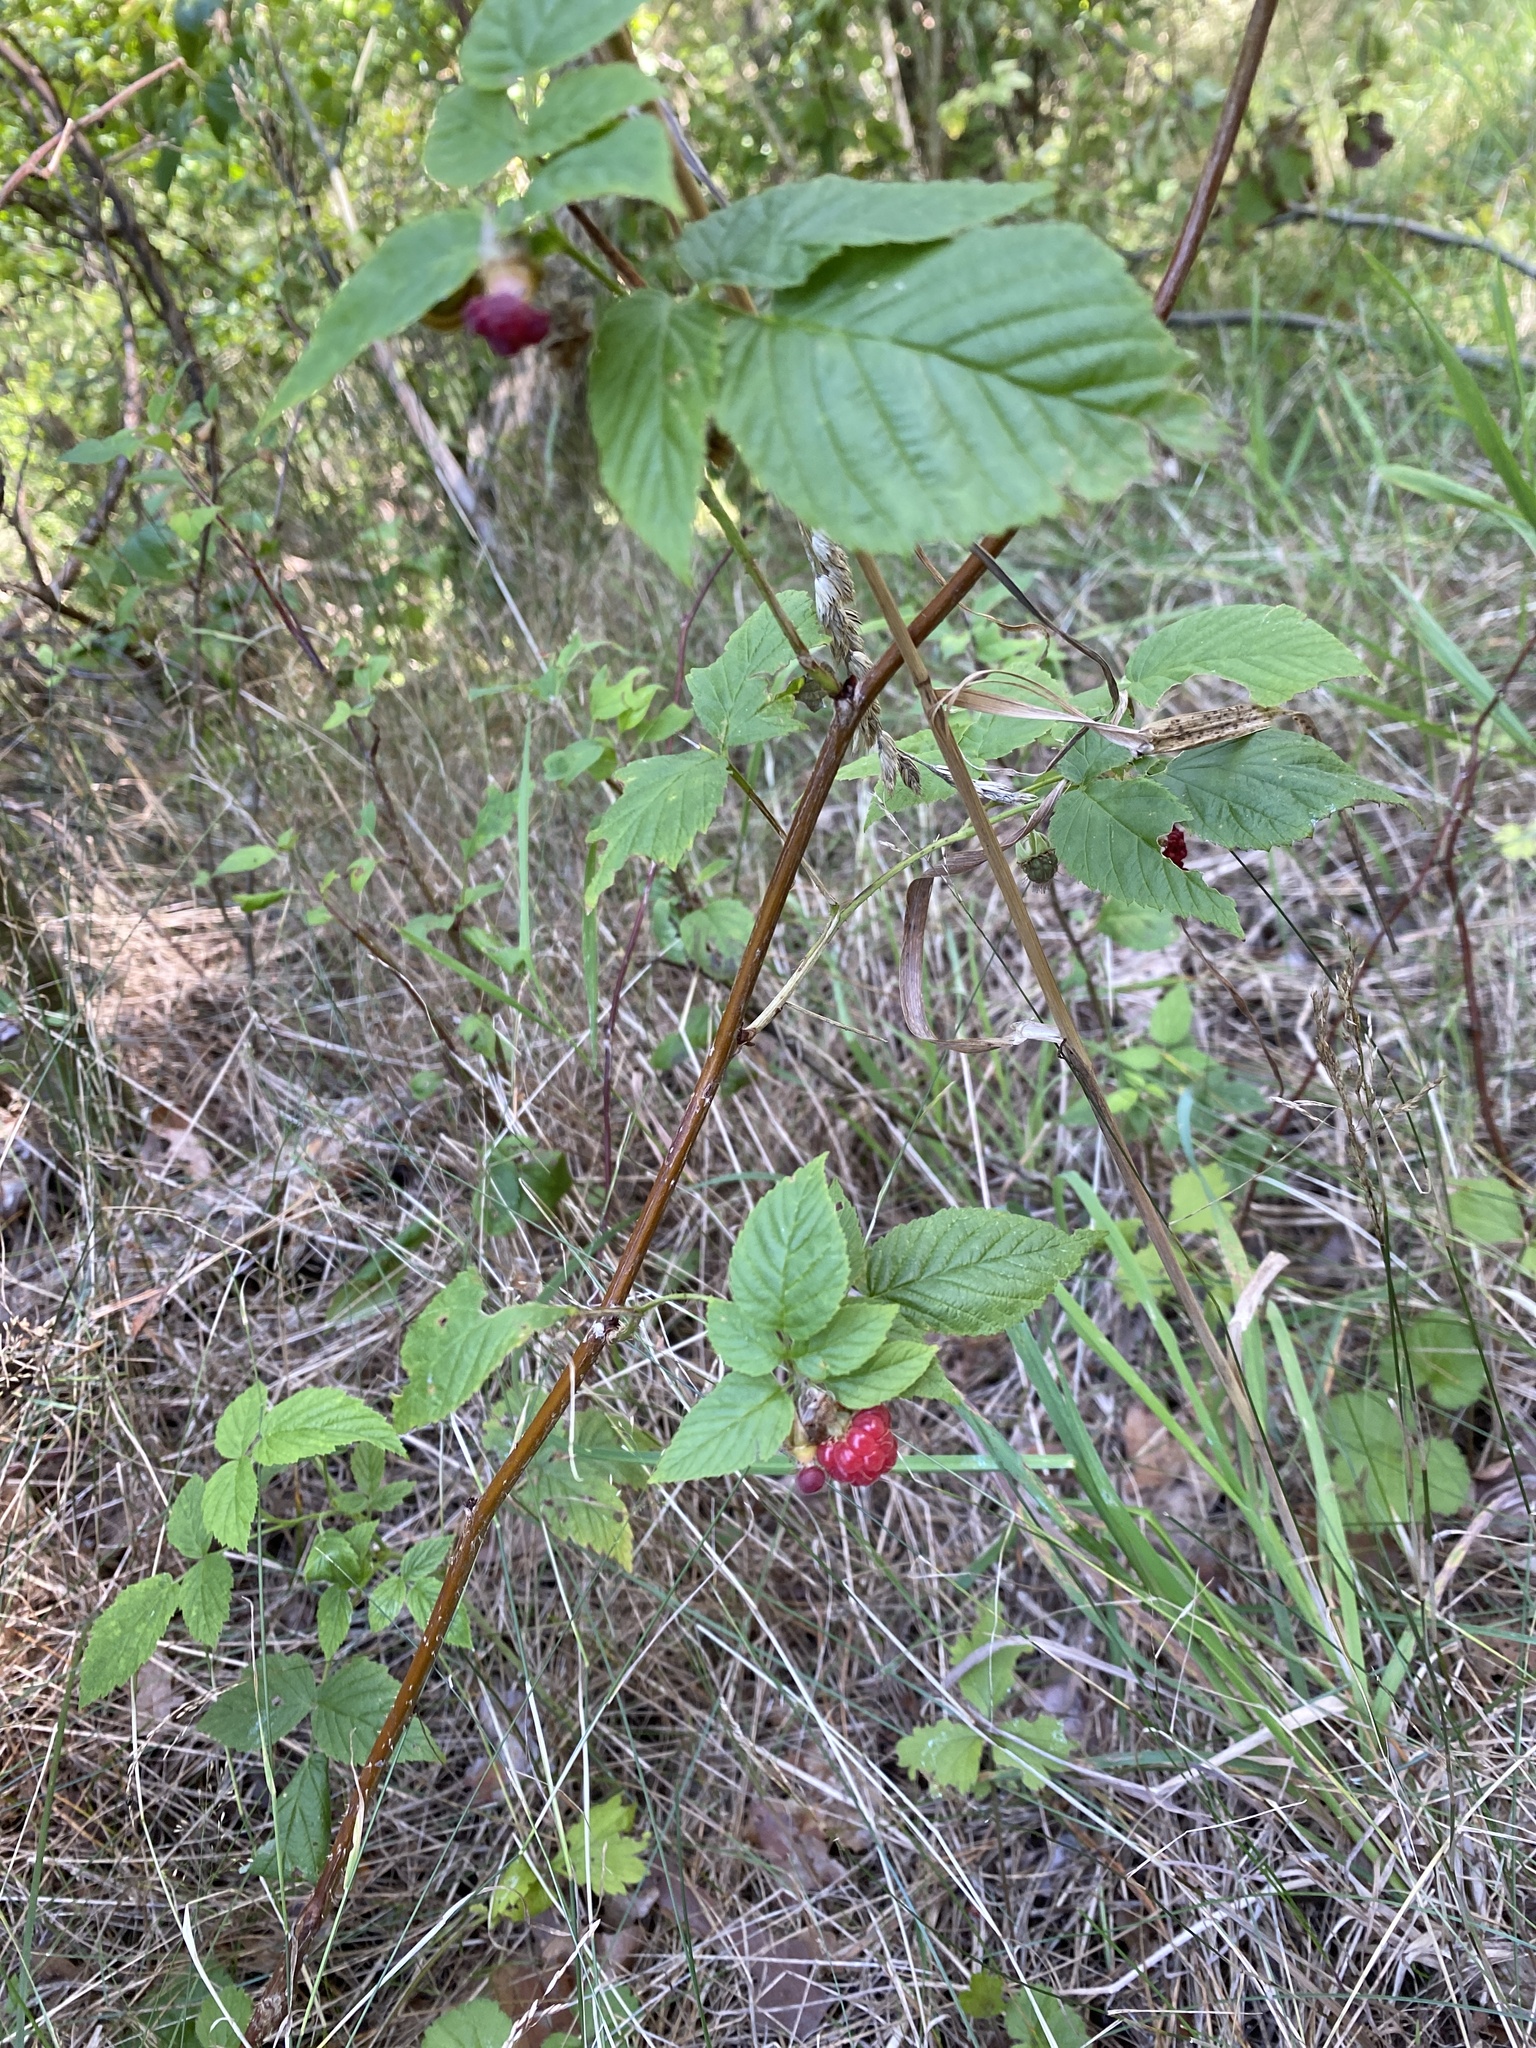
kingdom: Plantae
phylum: Tracheophyta
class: Magnoliopsida
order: Rosales
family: Rosaceae
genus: Rubus
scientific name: Rubus idaeus
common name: Raspberry
